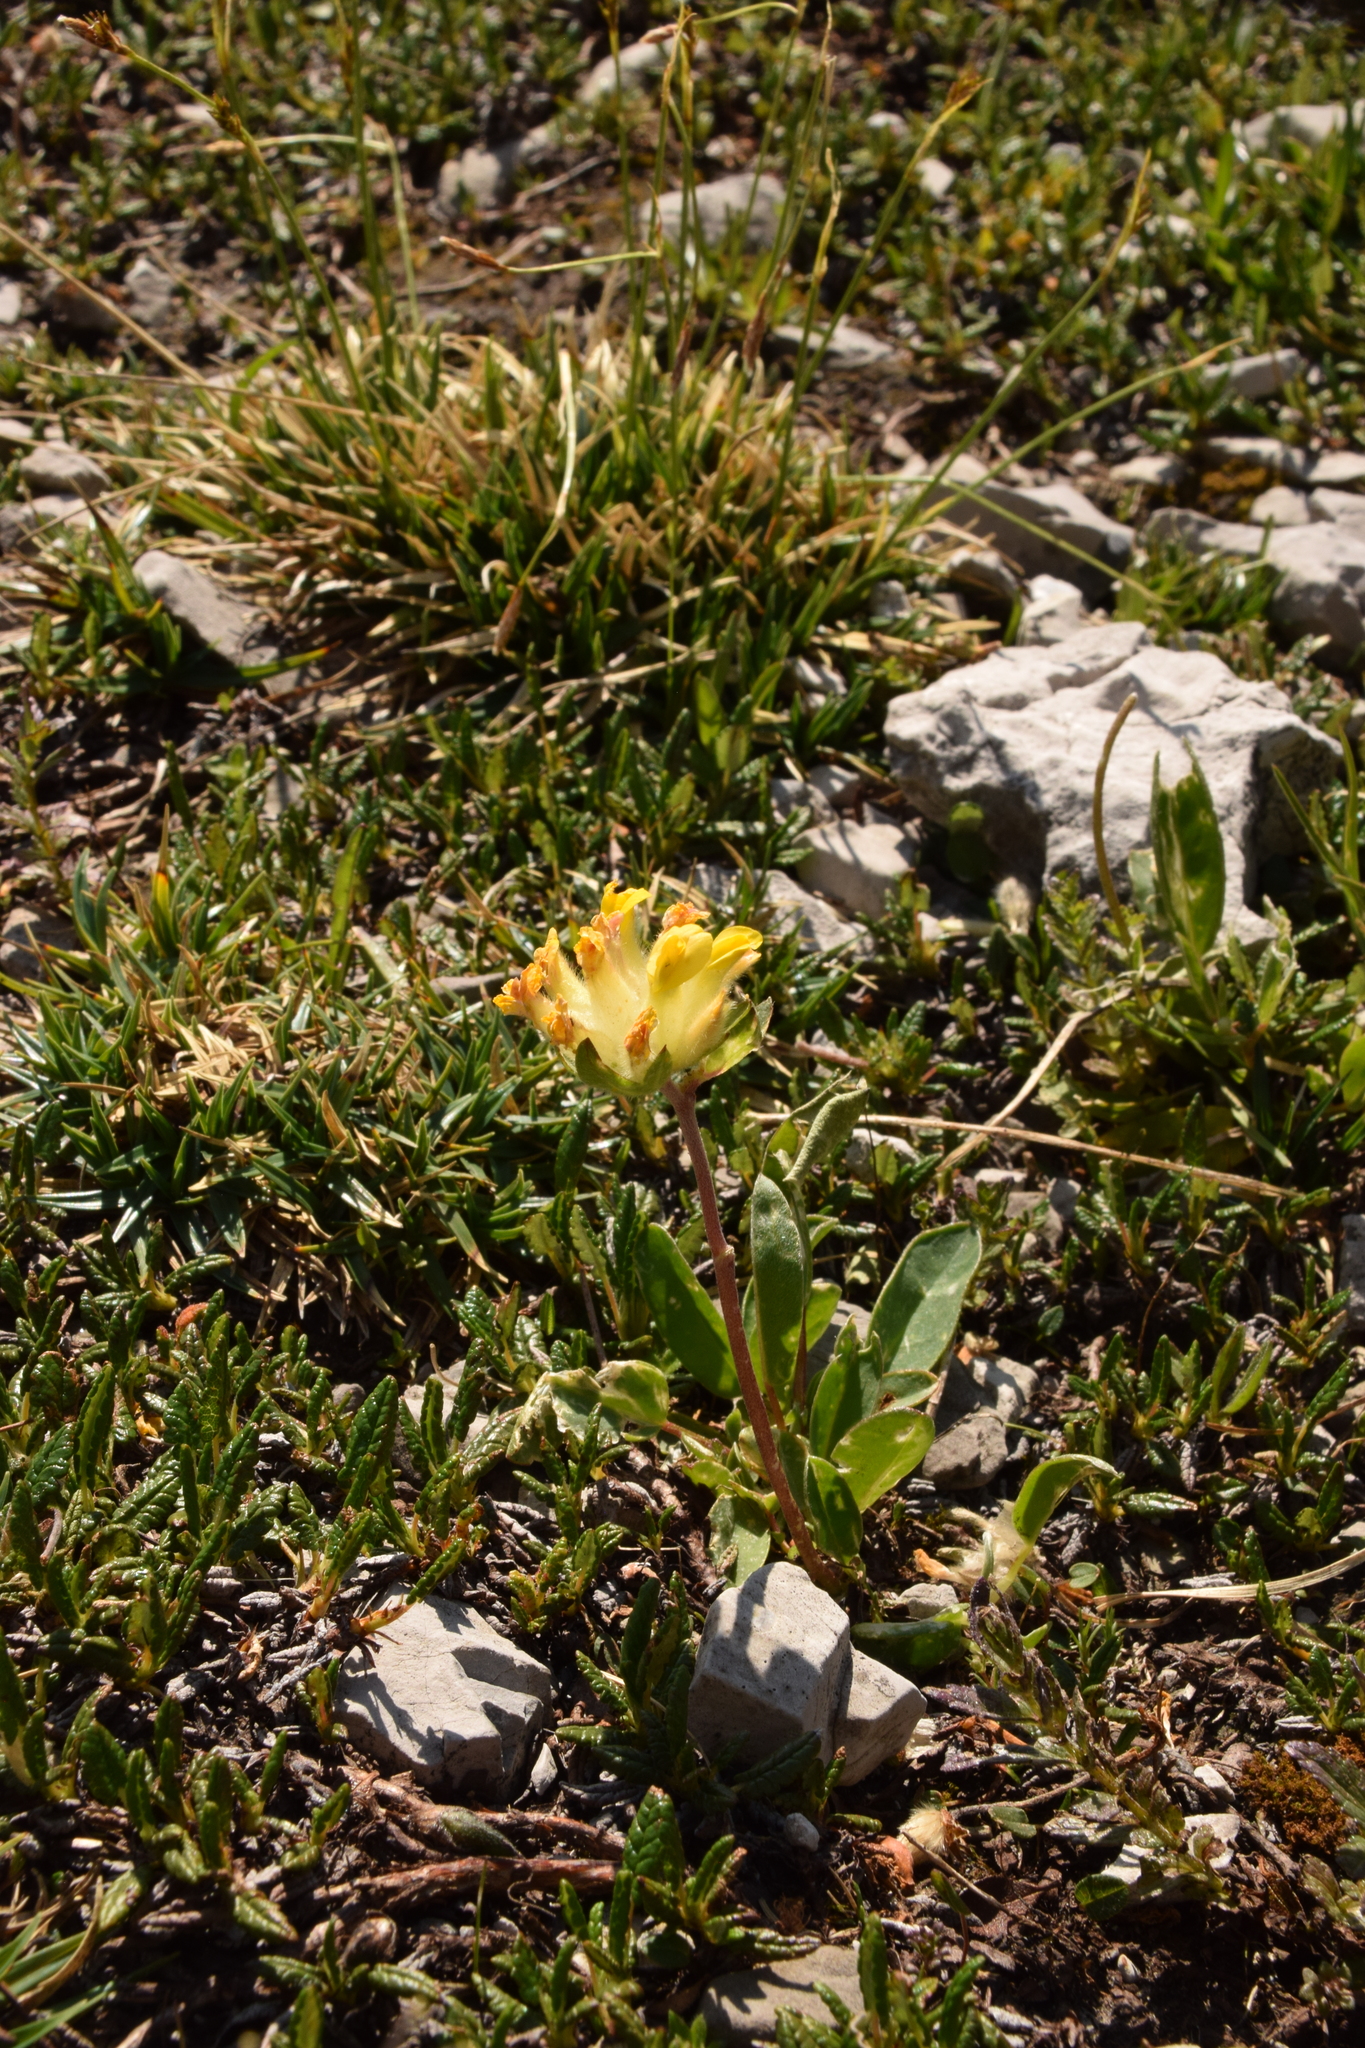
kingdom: Plantae
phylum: Tracheophyta
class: Magnoliopsida
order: Fabales
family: Fabaceae
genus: Anthyllis
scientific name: Anthyllis vulneraria
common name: Kidney vetch
